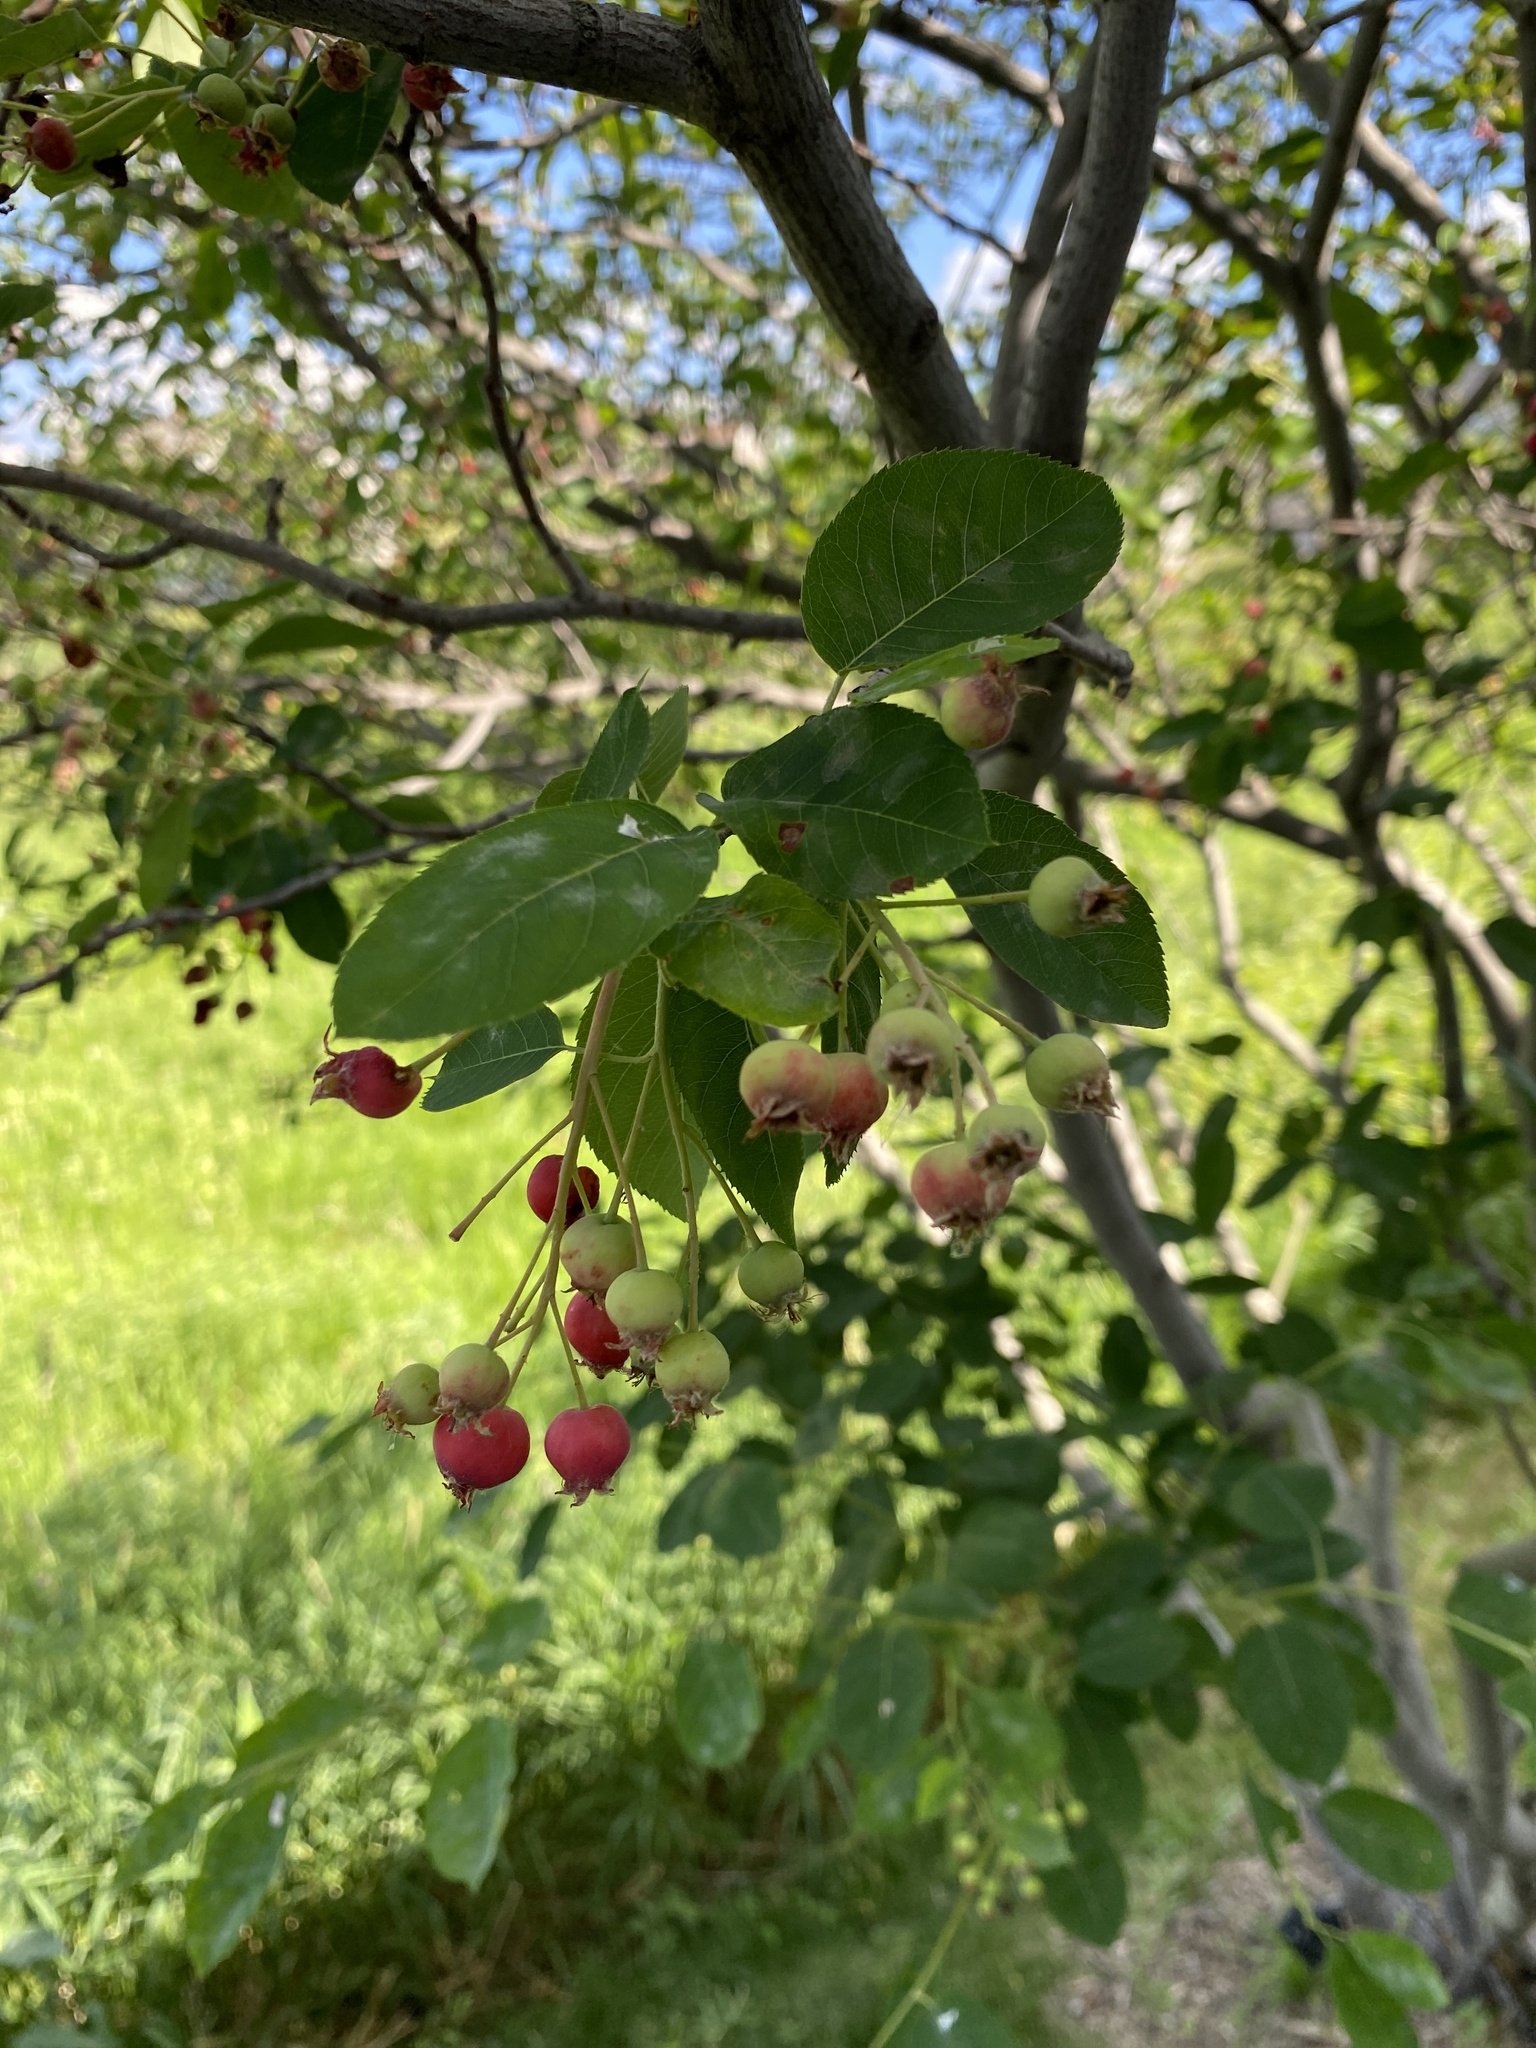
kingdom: Plantae
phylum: Tracheophyta
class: Magnoliopsida
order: Rosales
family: Rosaceae
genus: Amelanchier
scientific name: Amelanchier arborea
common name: Downy serviceberry
